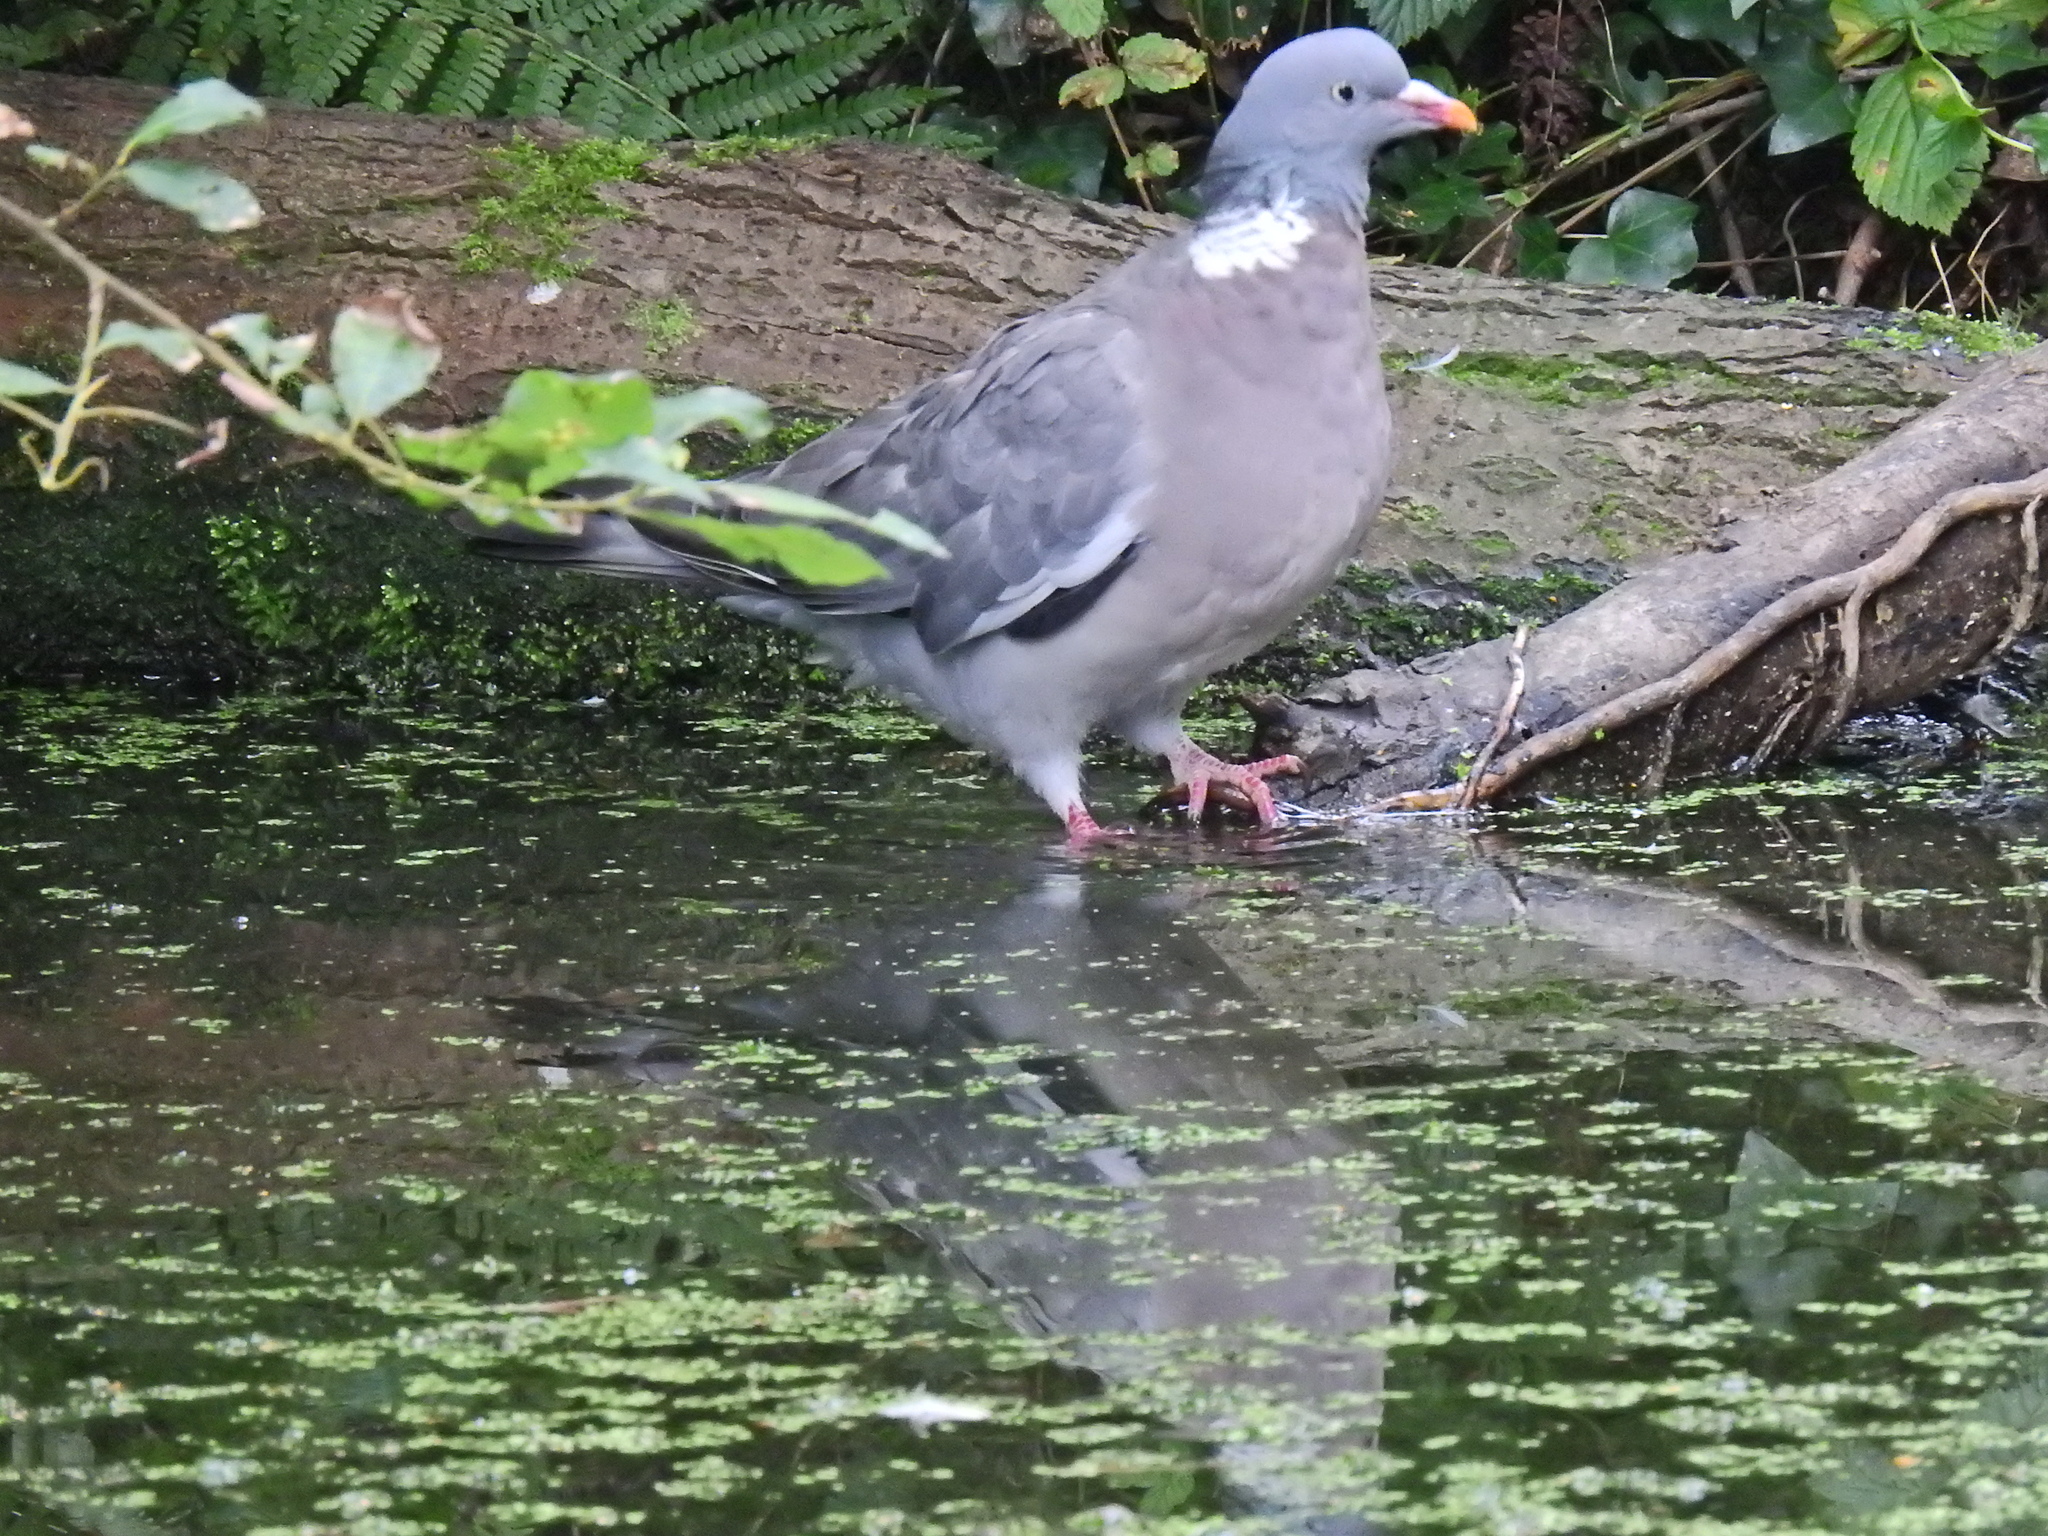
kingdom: Animalia
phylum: Chordata
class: Aves
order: Columbiformes
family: Columbidae
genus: Columba
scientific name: Columba palumbus
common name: Common wood pigeon
